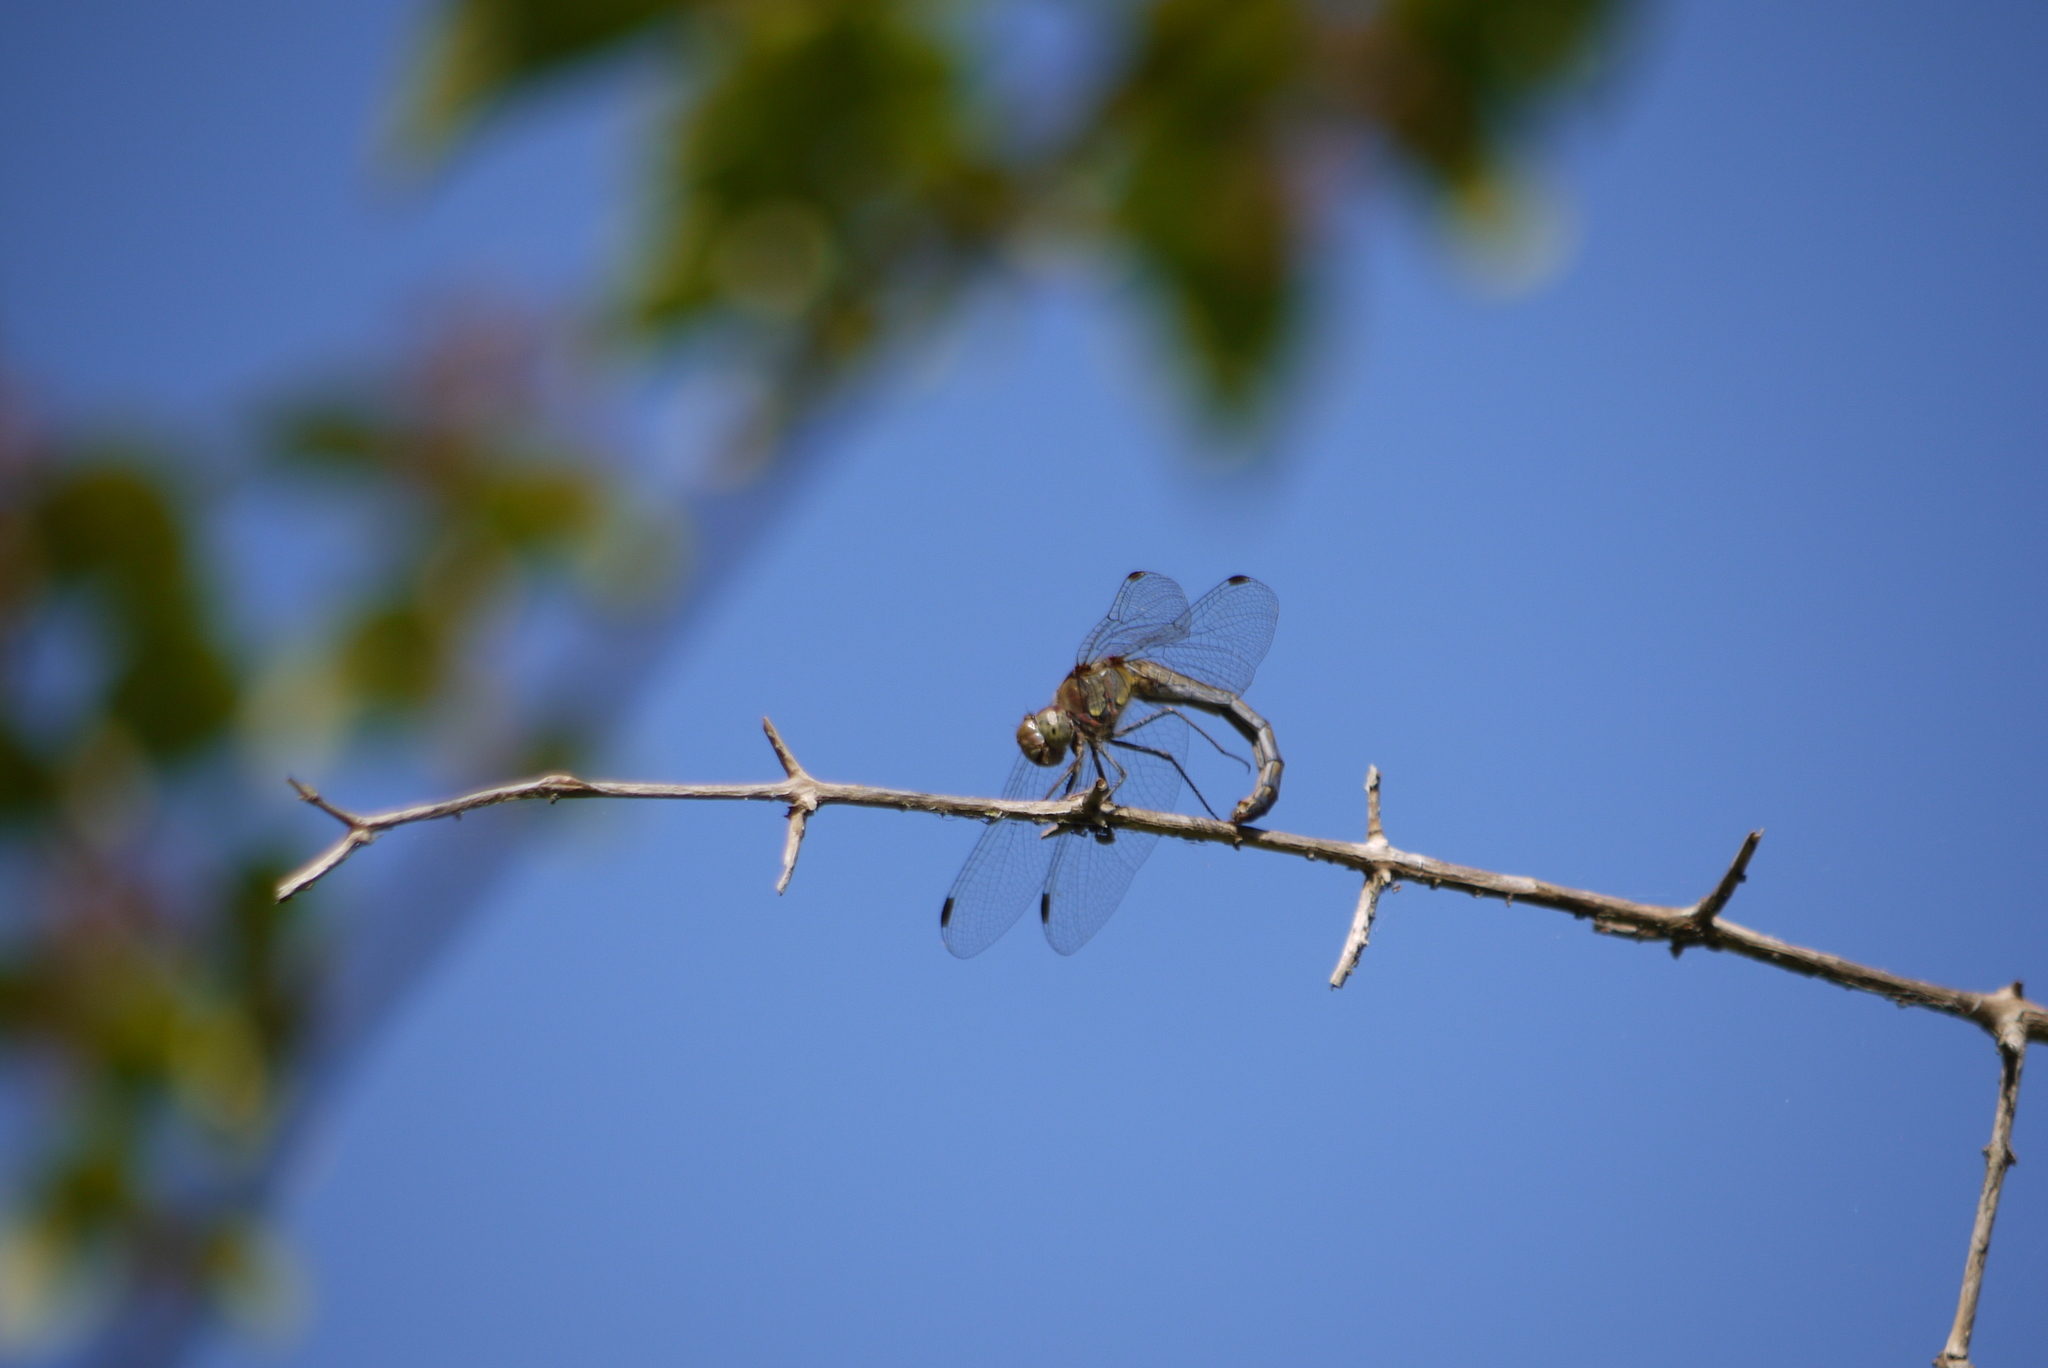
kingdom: Animalia
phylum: Arthropoda
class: Insecta
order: Odonata
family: Libellulidae
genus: Sympetrum
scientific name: Sympetrum striolatum
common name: Common darter
